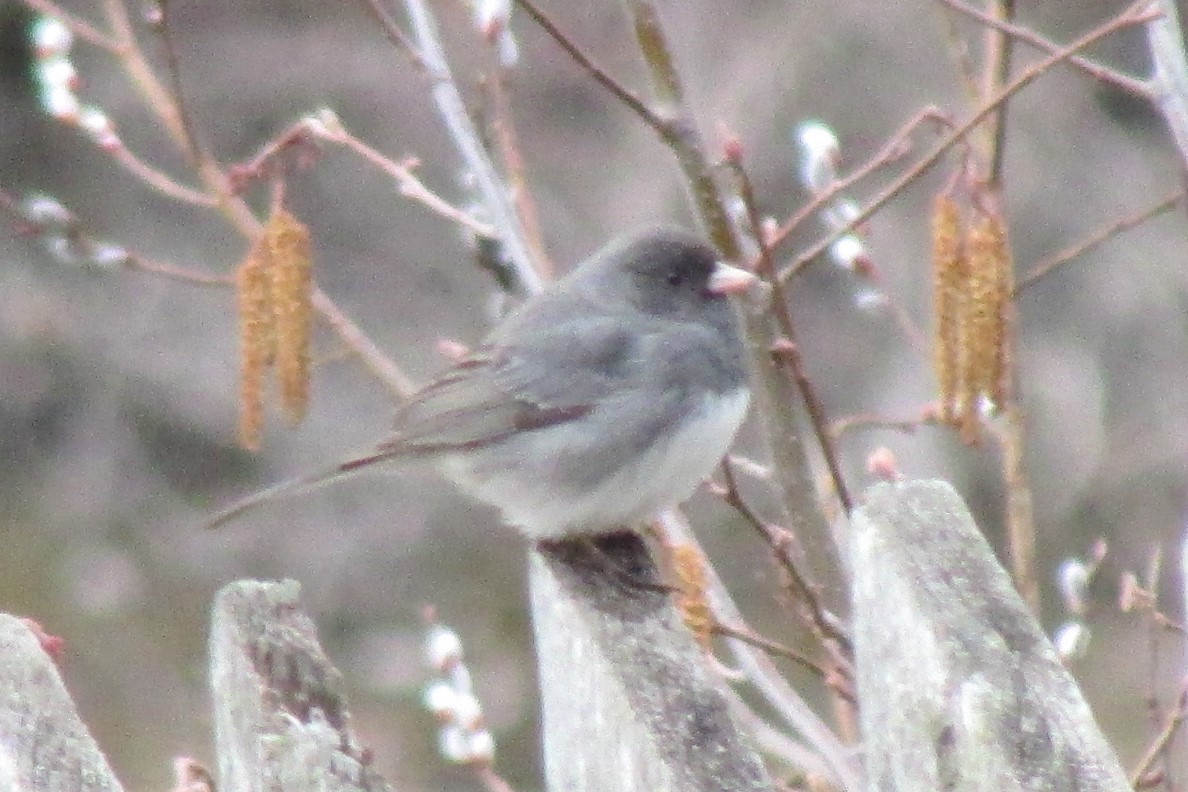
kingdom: Animalia
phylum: Chordata
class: Aves
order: Passeriformes
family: Passerellidae
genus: Junco
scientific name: Junco hyemalis
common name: Dark-eyed junco
